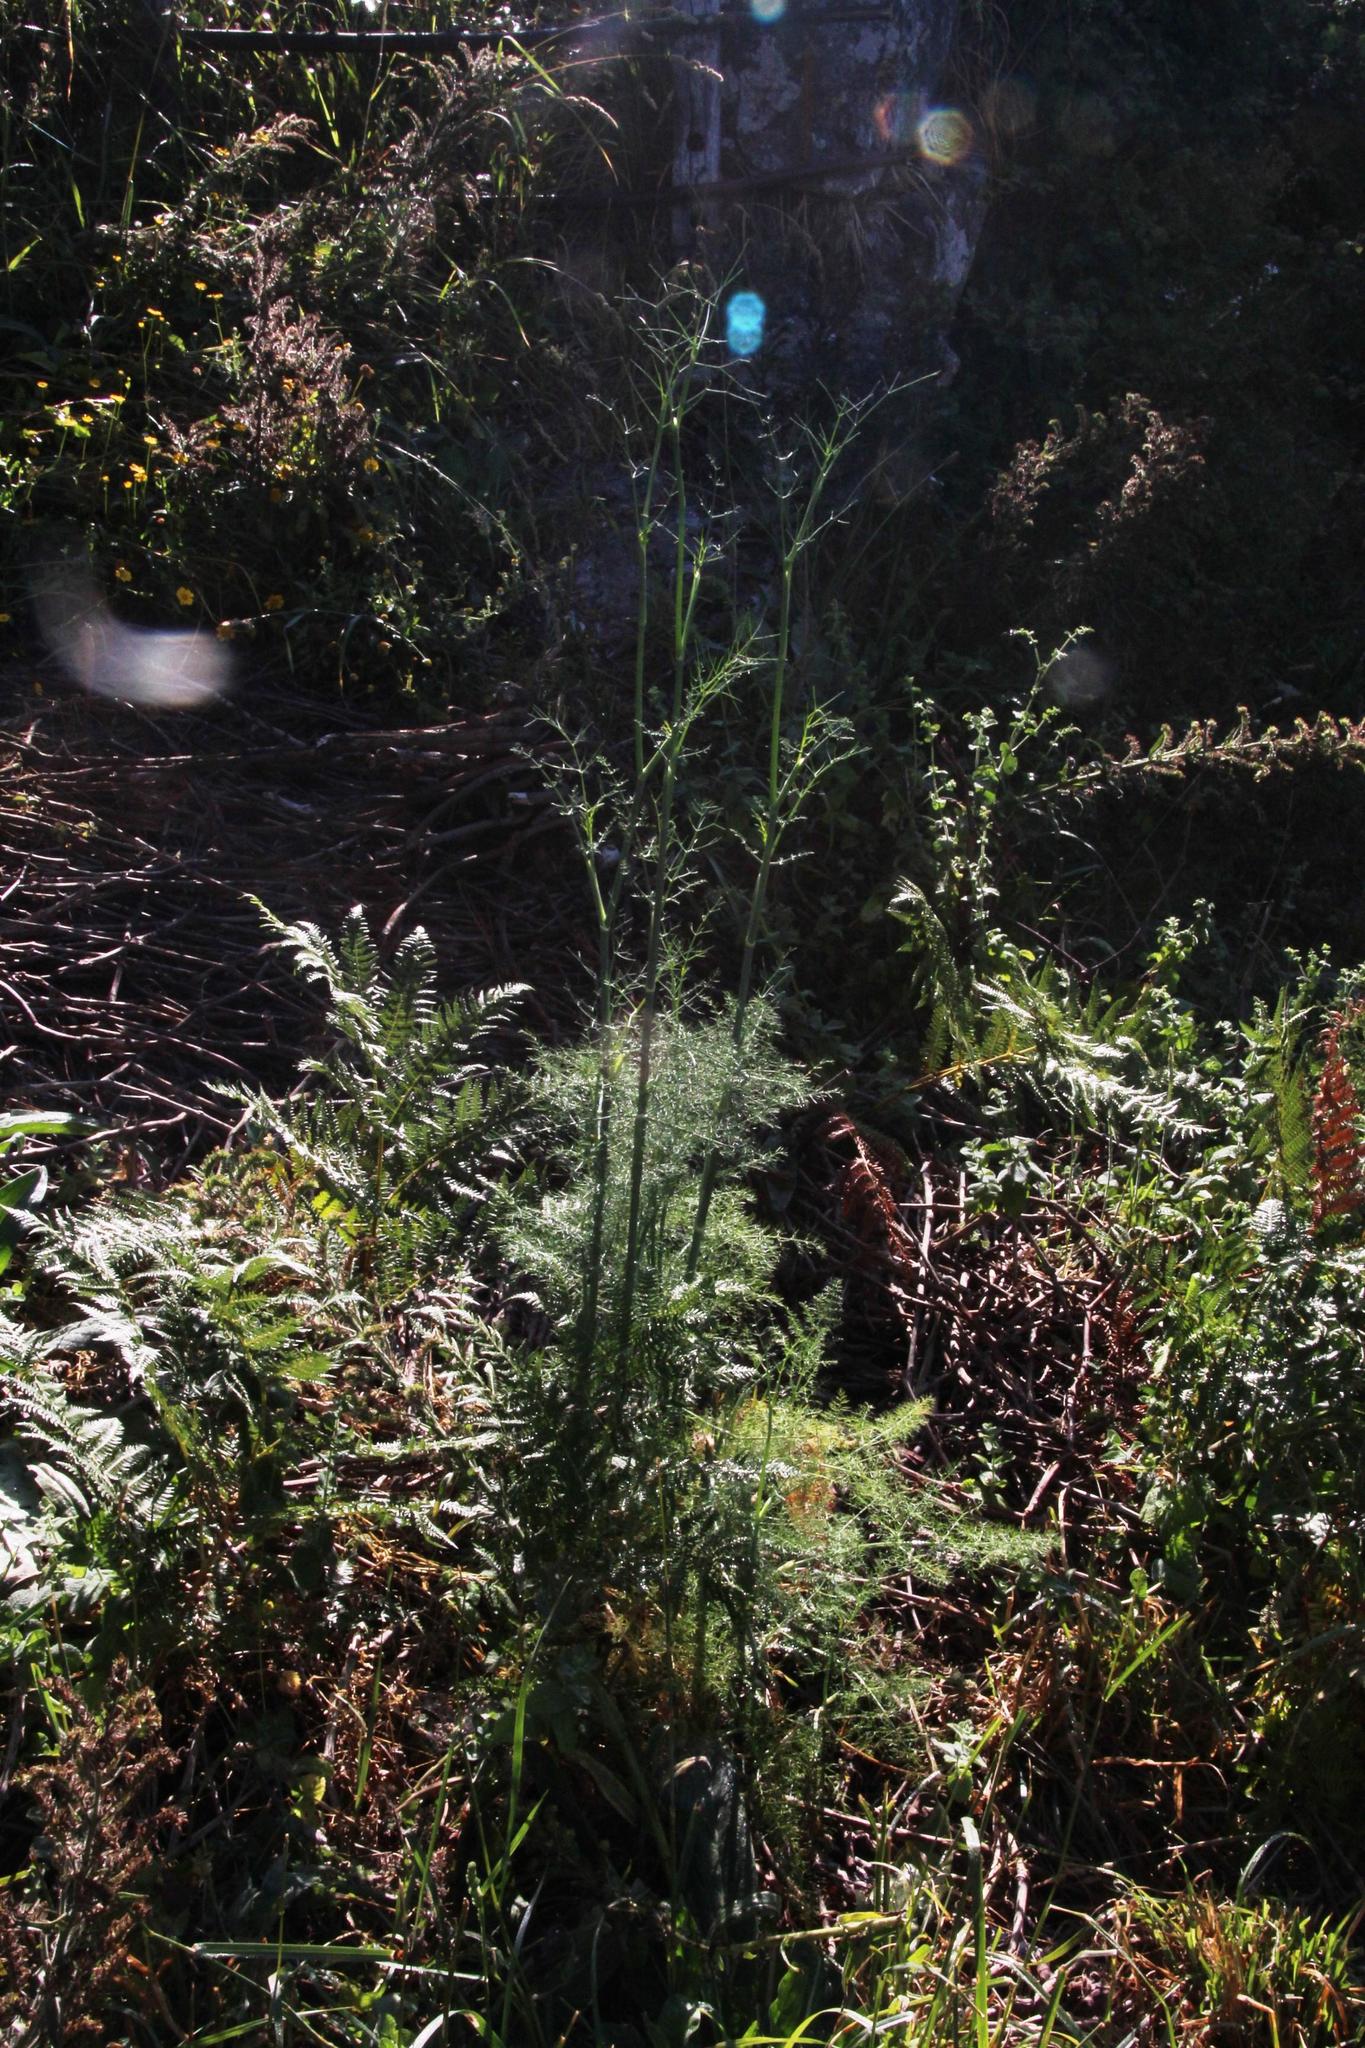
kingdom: Plantae
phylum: Tracheophyta
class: Magnoliopsida
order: Apiales
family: Apiaceae
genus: Foeniculum
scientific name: Foeniculum vulgare
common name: Fennel
